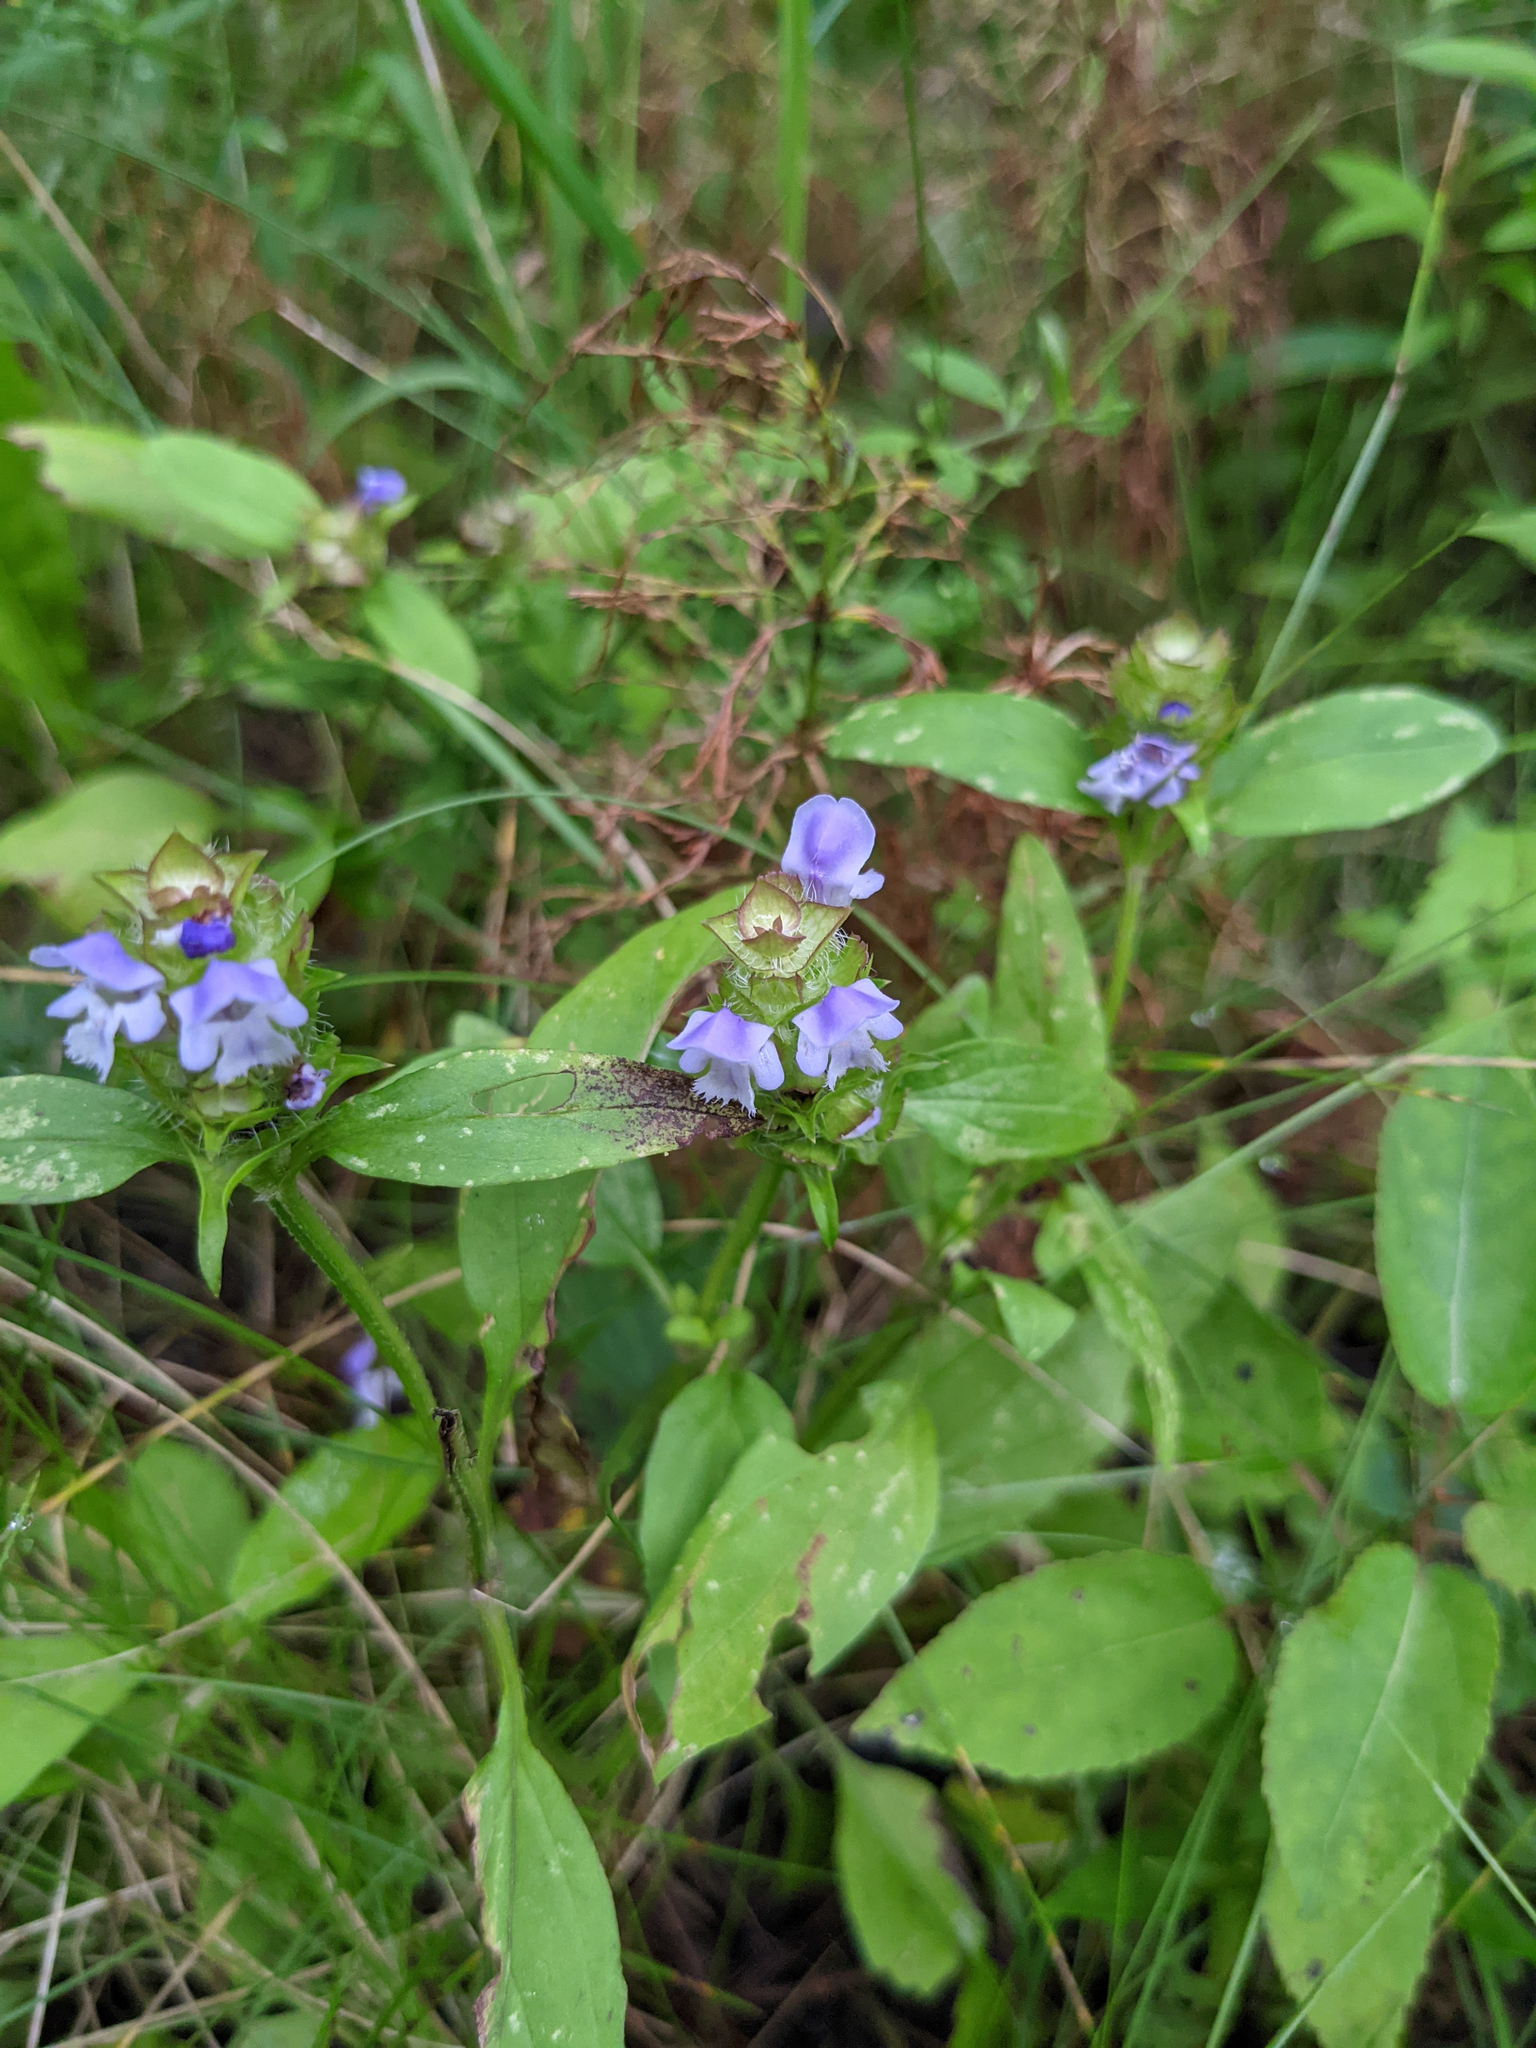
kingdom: Plantae
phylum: Tracheophyta
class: Magnoliopsida
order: Lamiales
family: Lamiaceae
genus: Prunella
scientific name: Prunella vulgaris
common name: Heal-all
